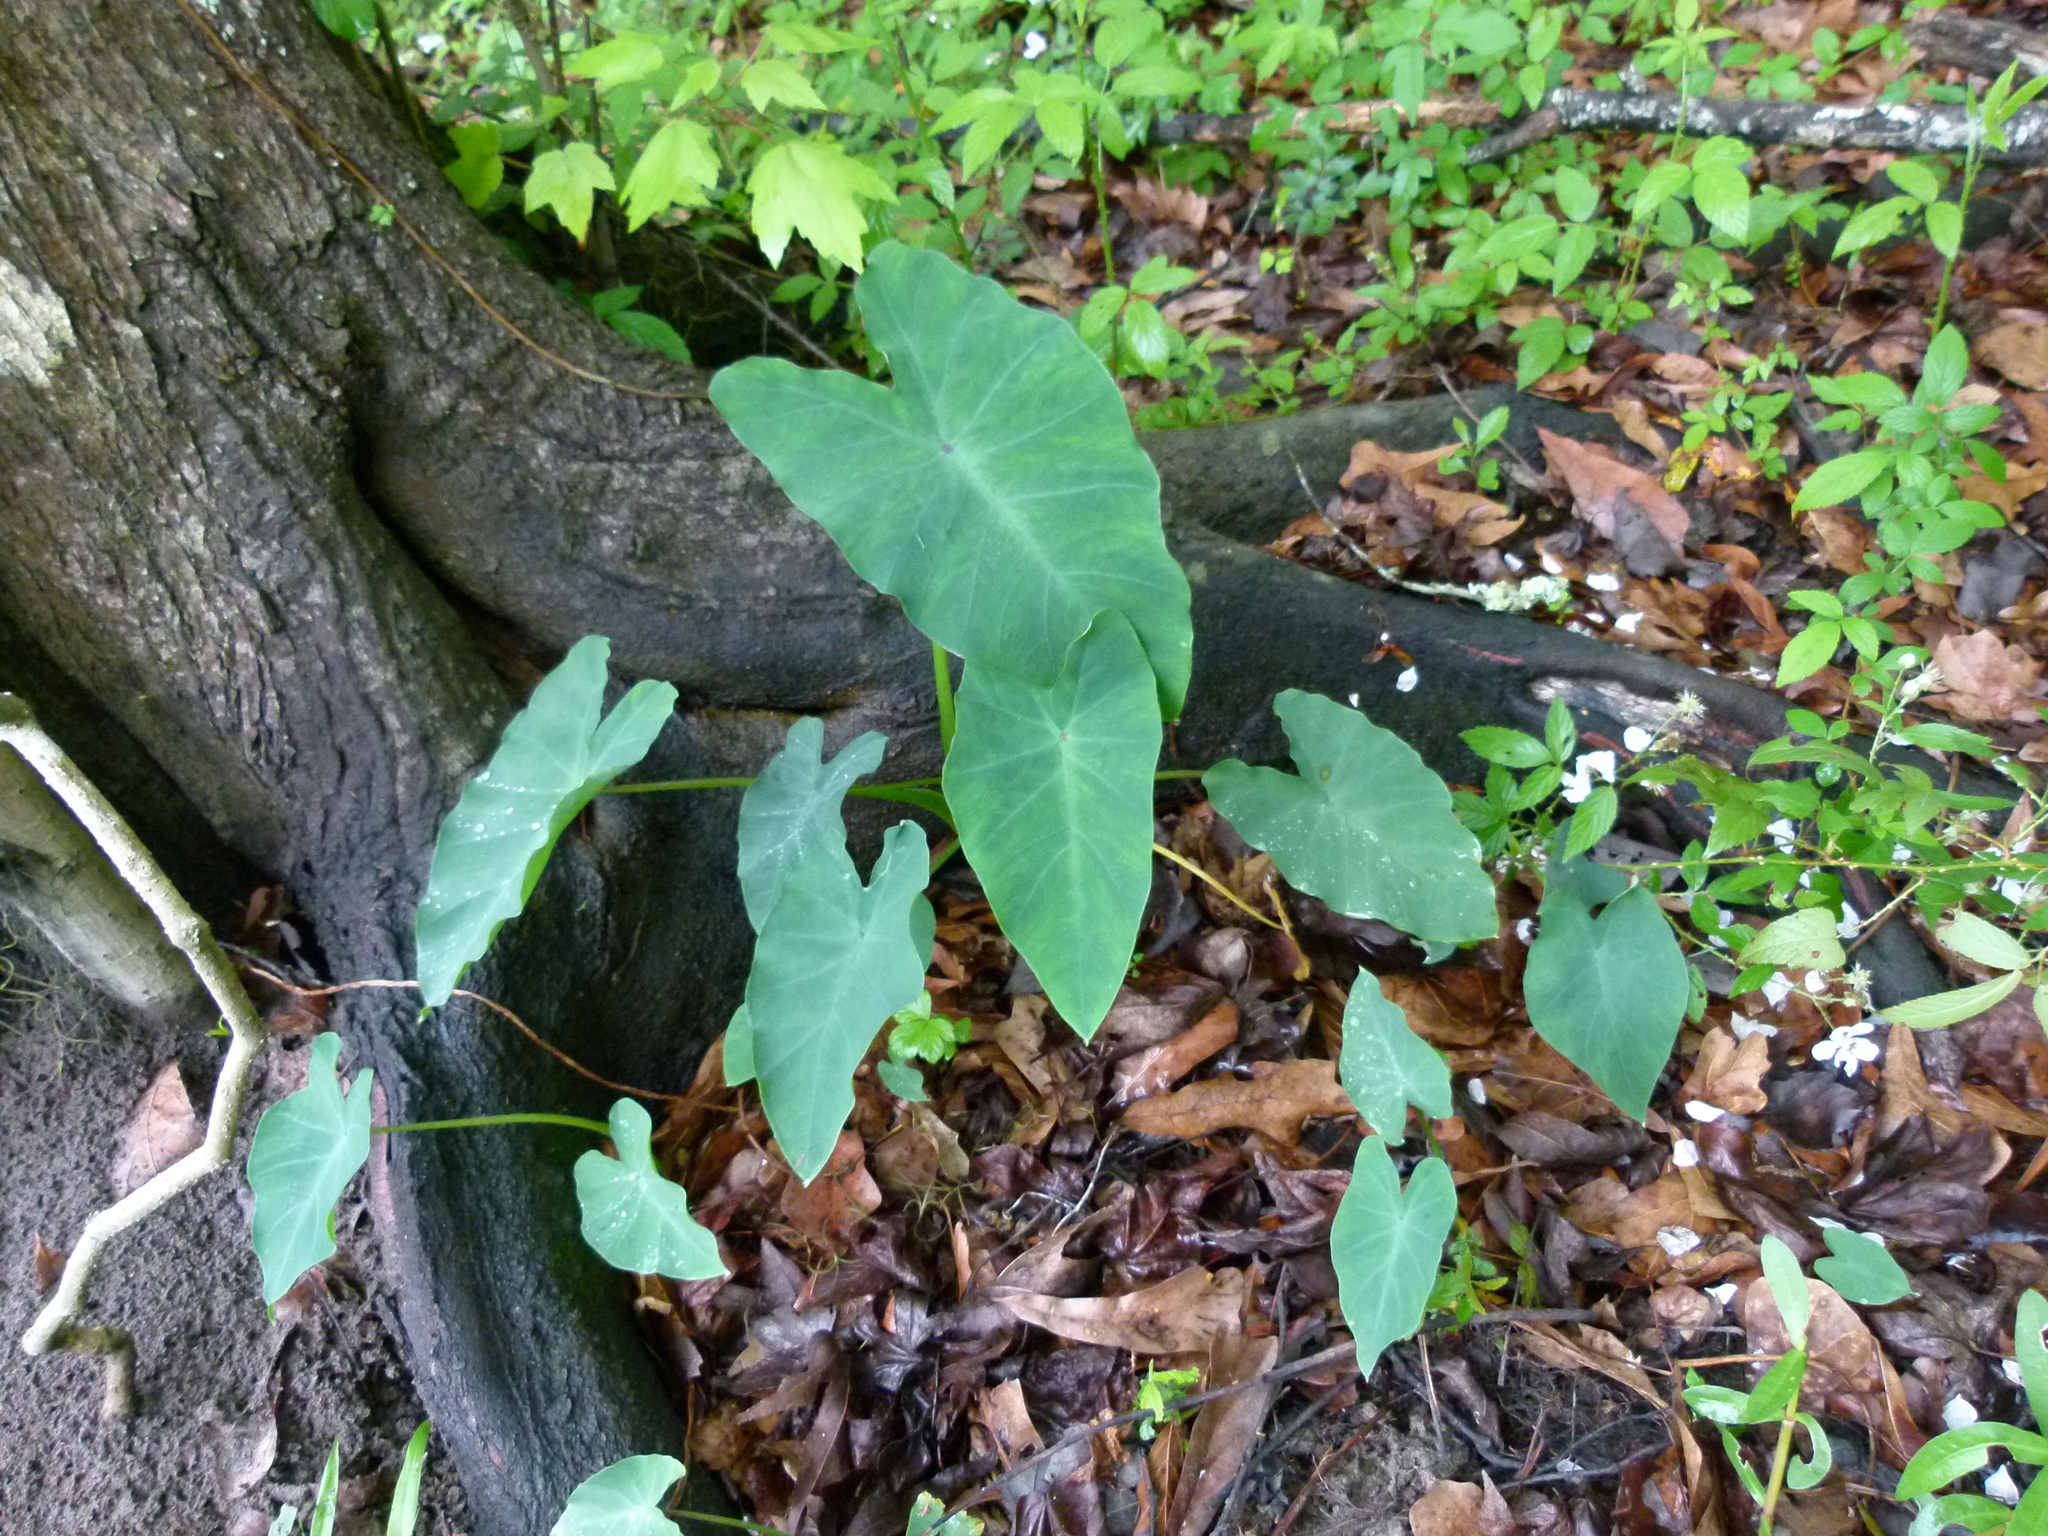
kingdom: Plantae
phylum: Tracheophyta
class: Liliopsida
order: Alismatales
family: Araceae
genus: Xanthosoma
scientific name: Xanthosoma robustum
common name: Capote
